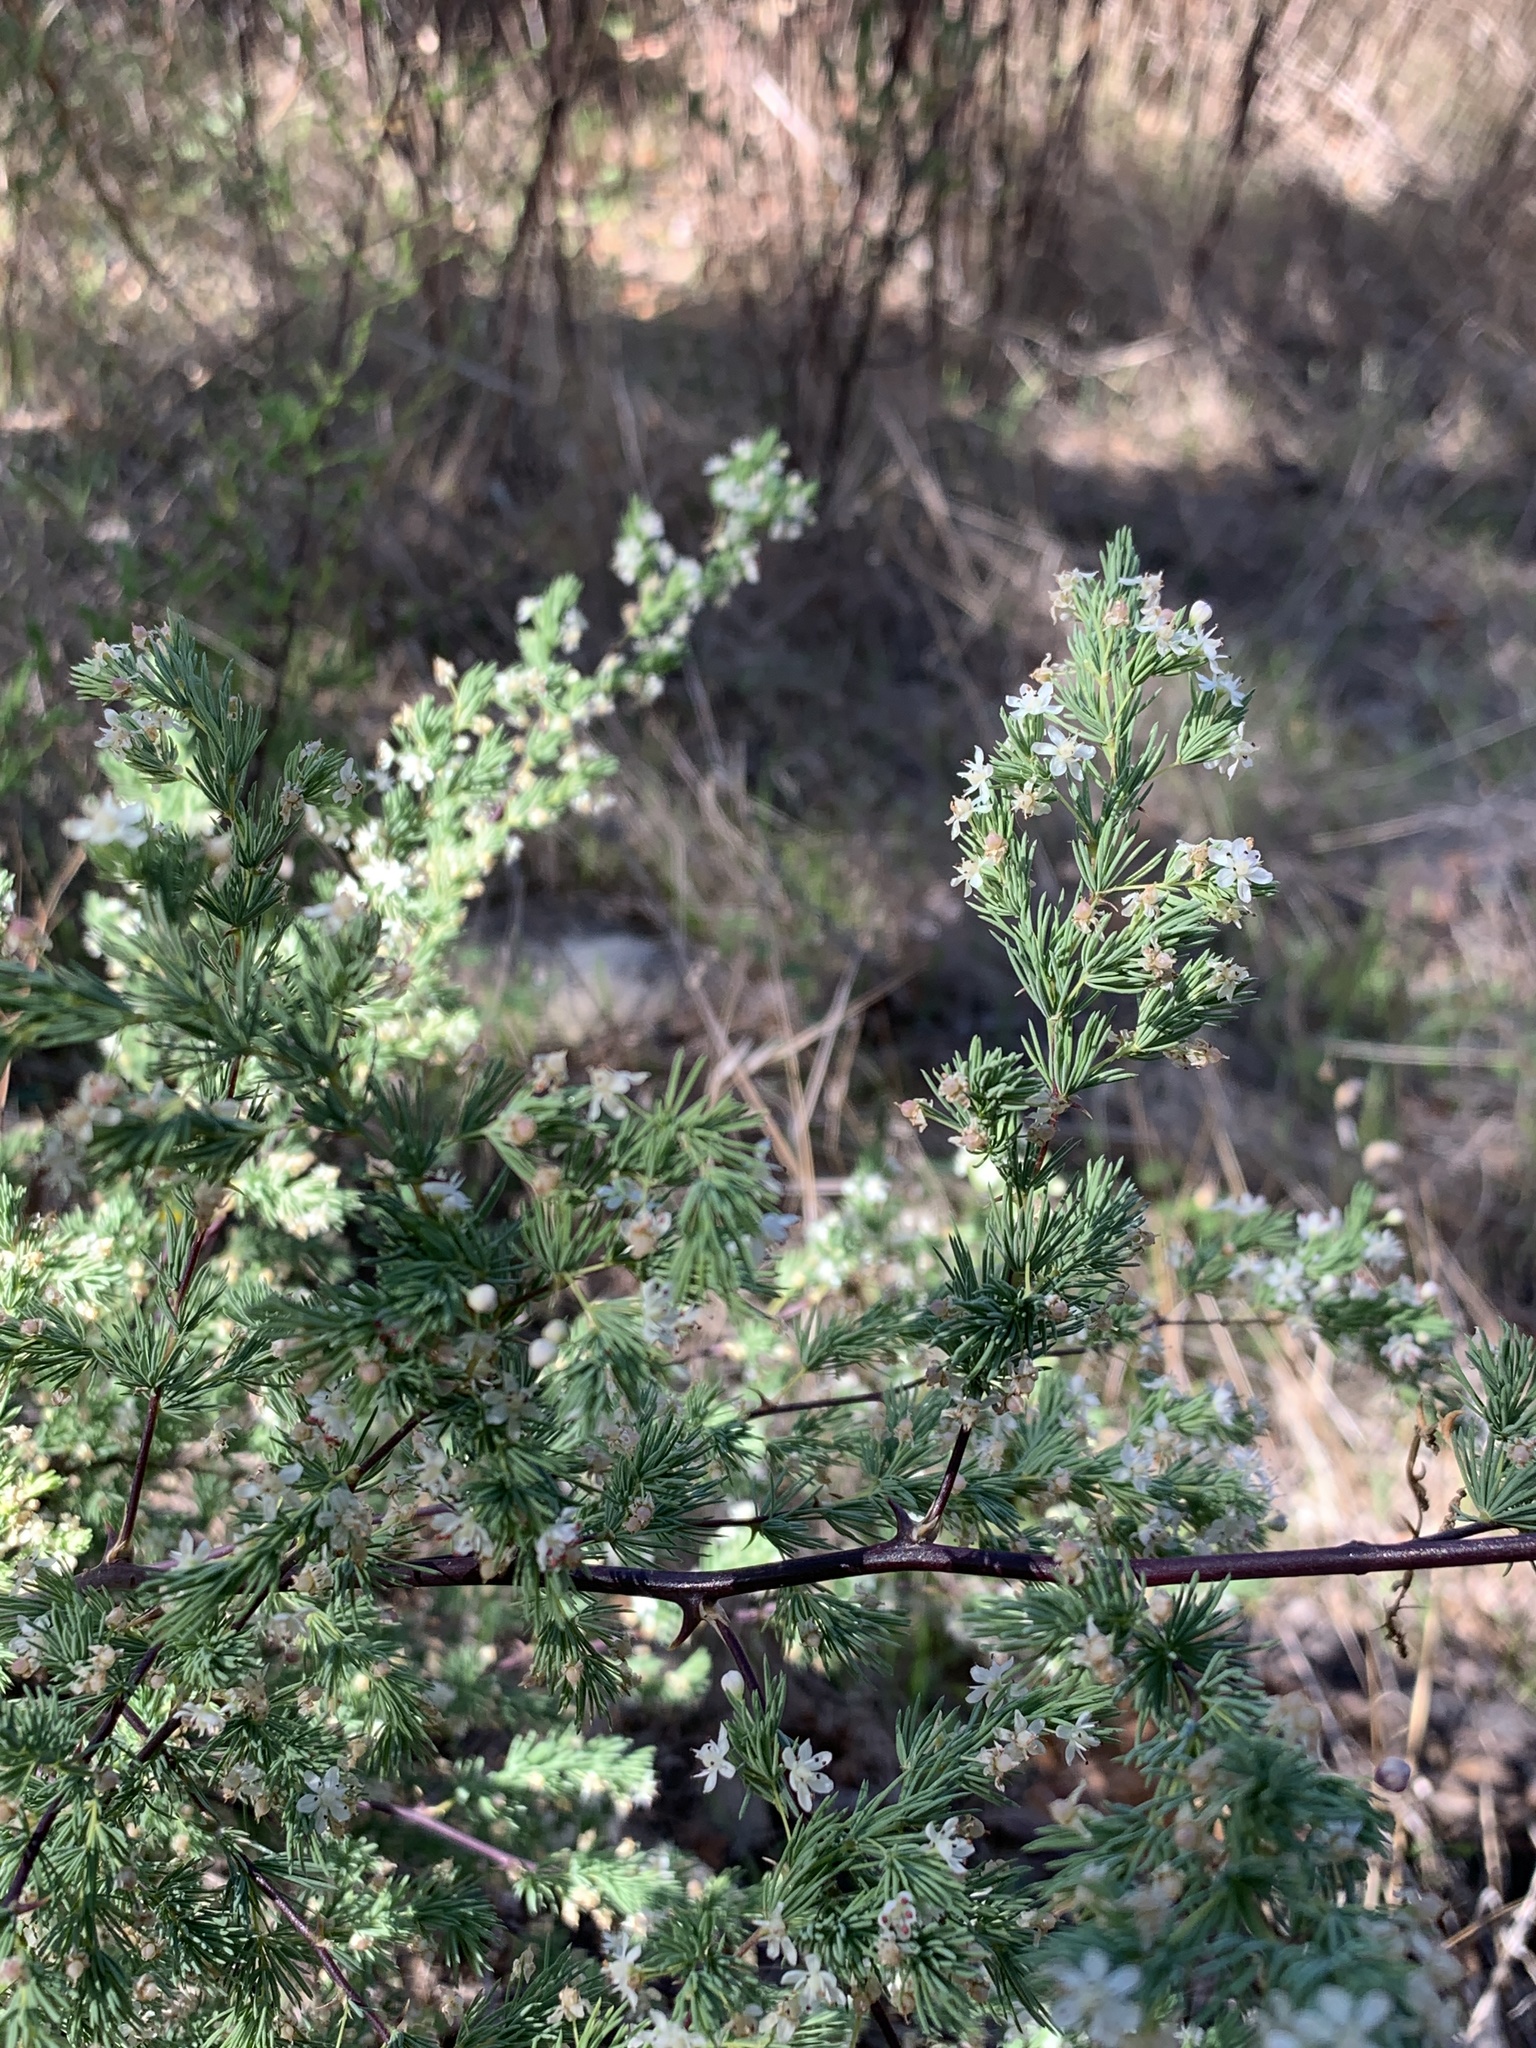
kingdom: Plantae
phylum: Tracheophyta
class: Liliopsida
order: Asparagales
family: Asparagaceae
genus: Asparagus
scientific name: Asparagus rubicundus
